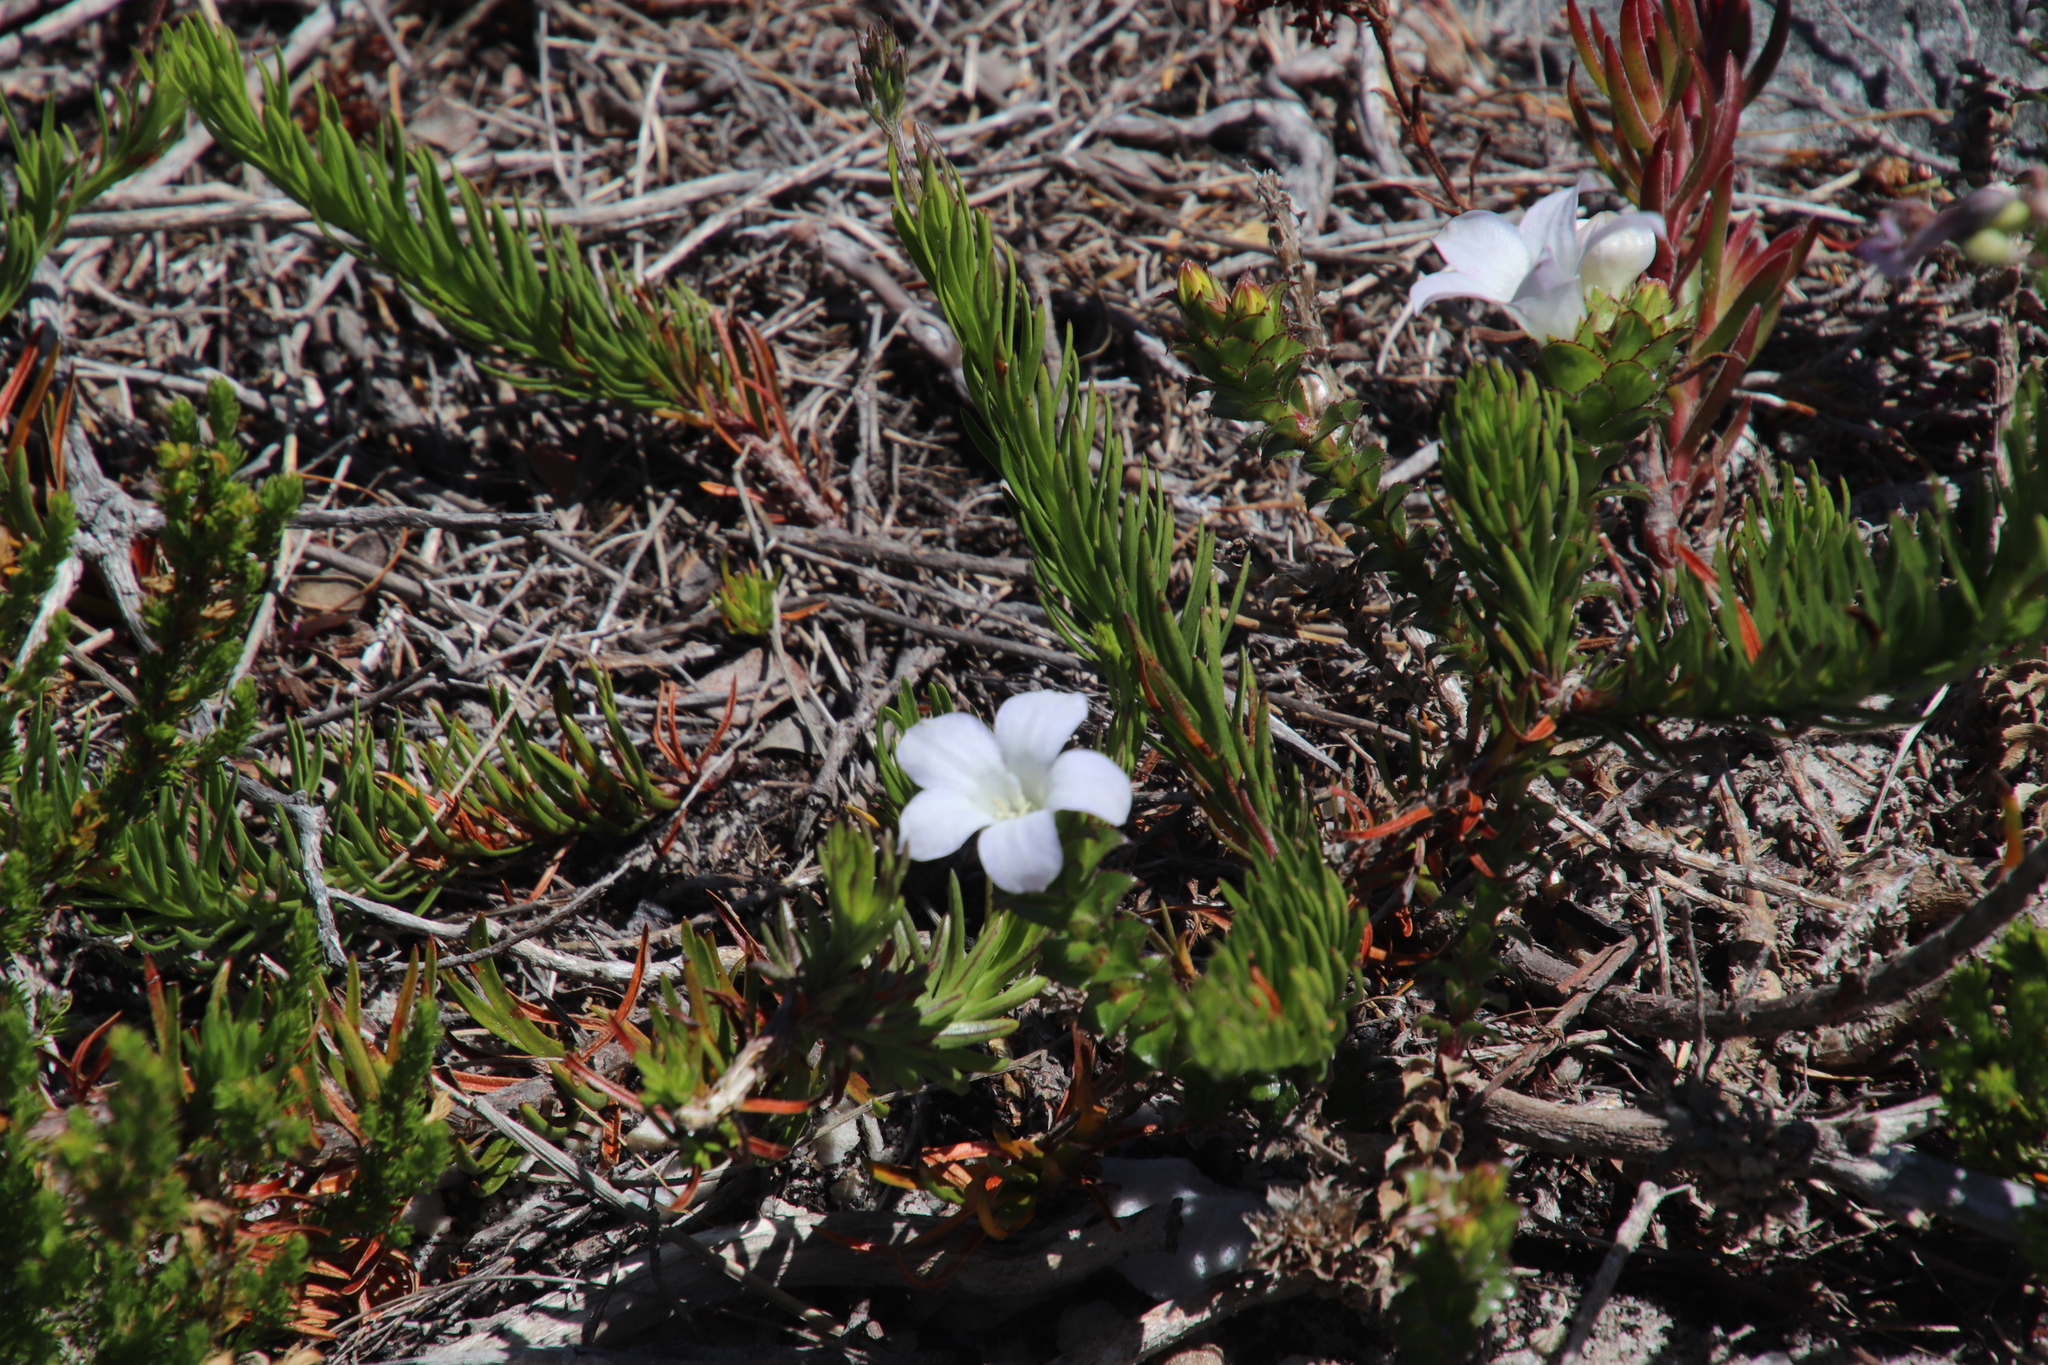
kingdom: Plantae
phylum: Tracheophyta
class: Magnoliopsida
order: Asterales
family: Campanulaceae
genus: Roella
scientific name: Roella amplexicaulis
